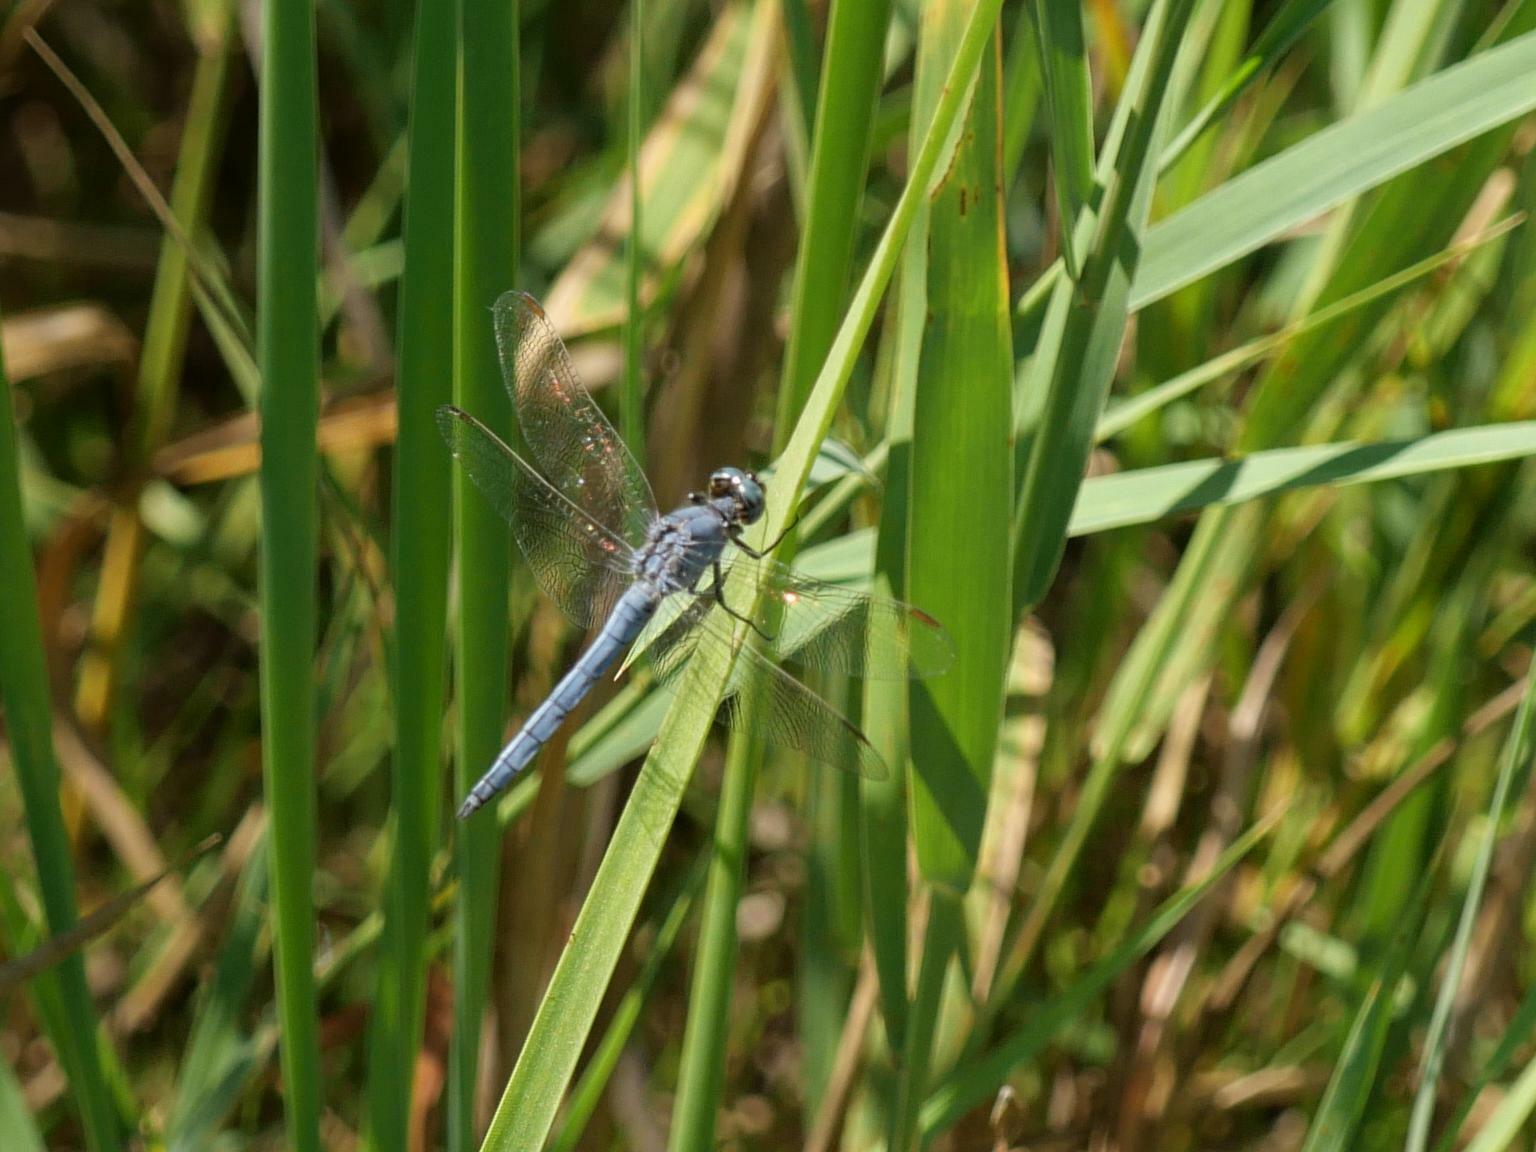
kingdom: Animalia
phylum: Arthropoda
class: Insecta
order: Odonata
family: Libellulidae
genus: Orthetrum
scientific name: Orthetrum coerulescens
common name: Keeled skimmer
